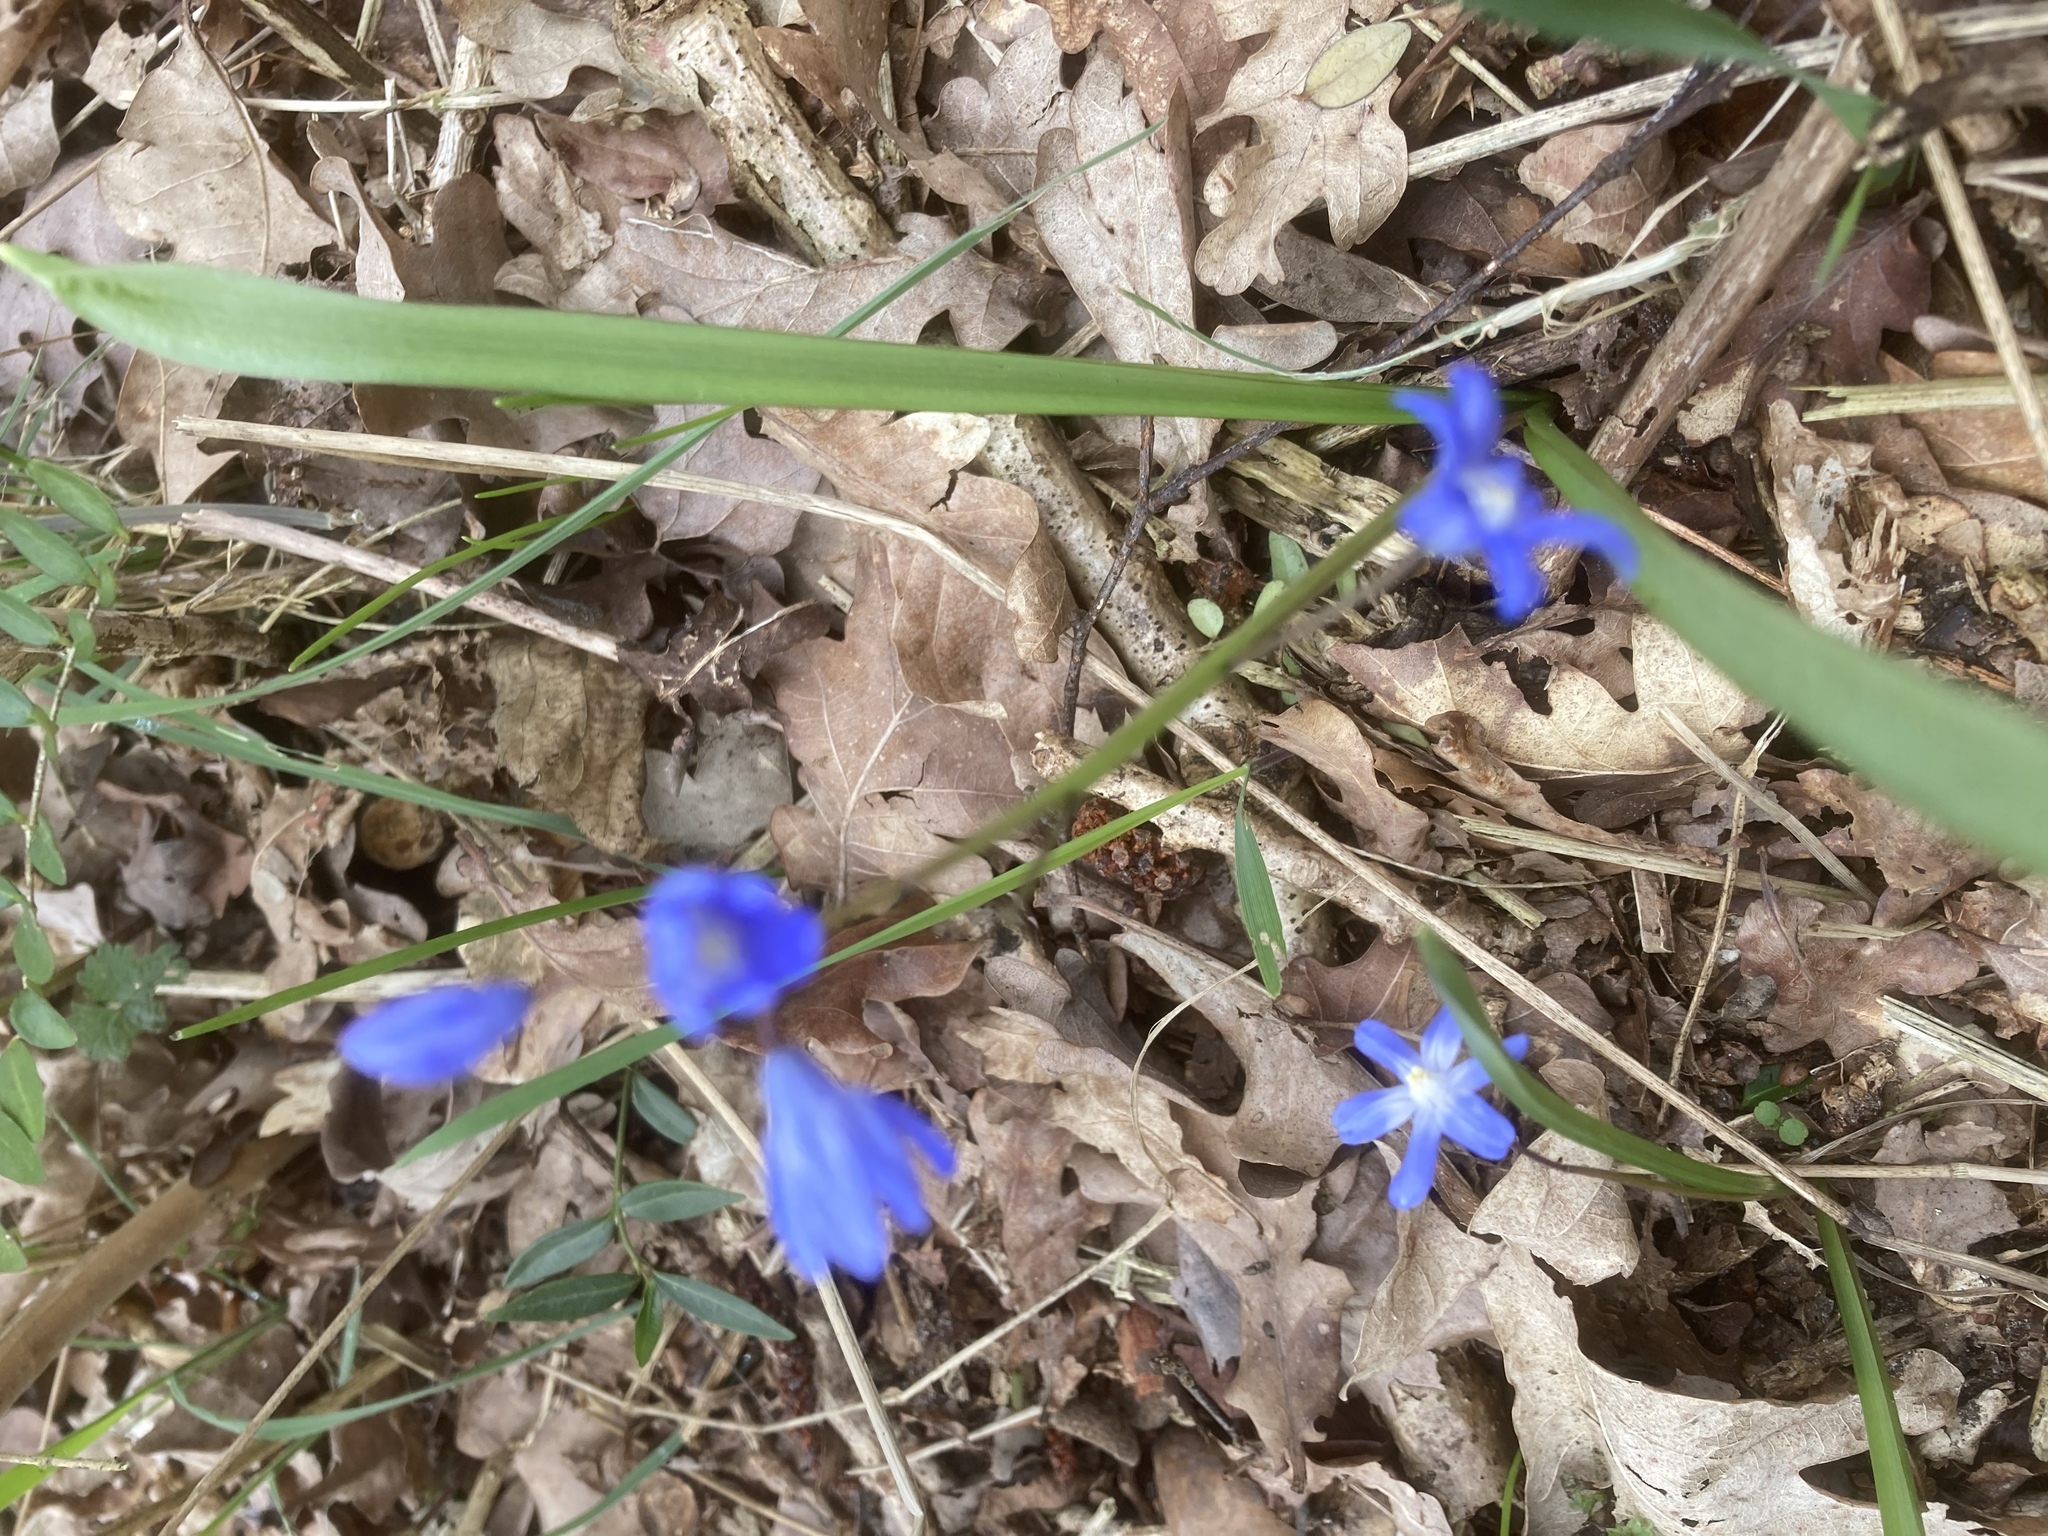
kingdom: Plantae
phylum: Tracheophyta
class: Liliopsida
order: Asparagales
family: Asparagaceae
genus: Scilla
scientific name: Scilla siberica
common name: Siberian squill
